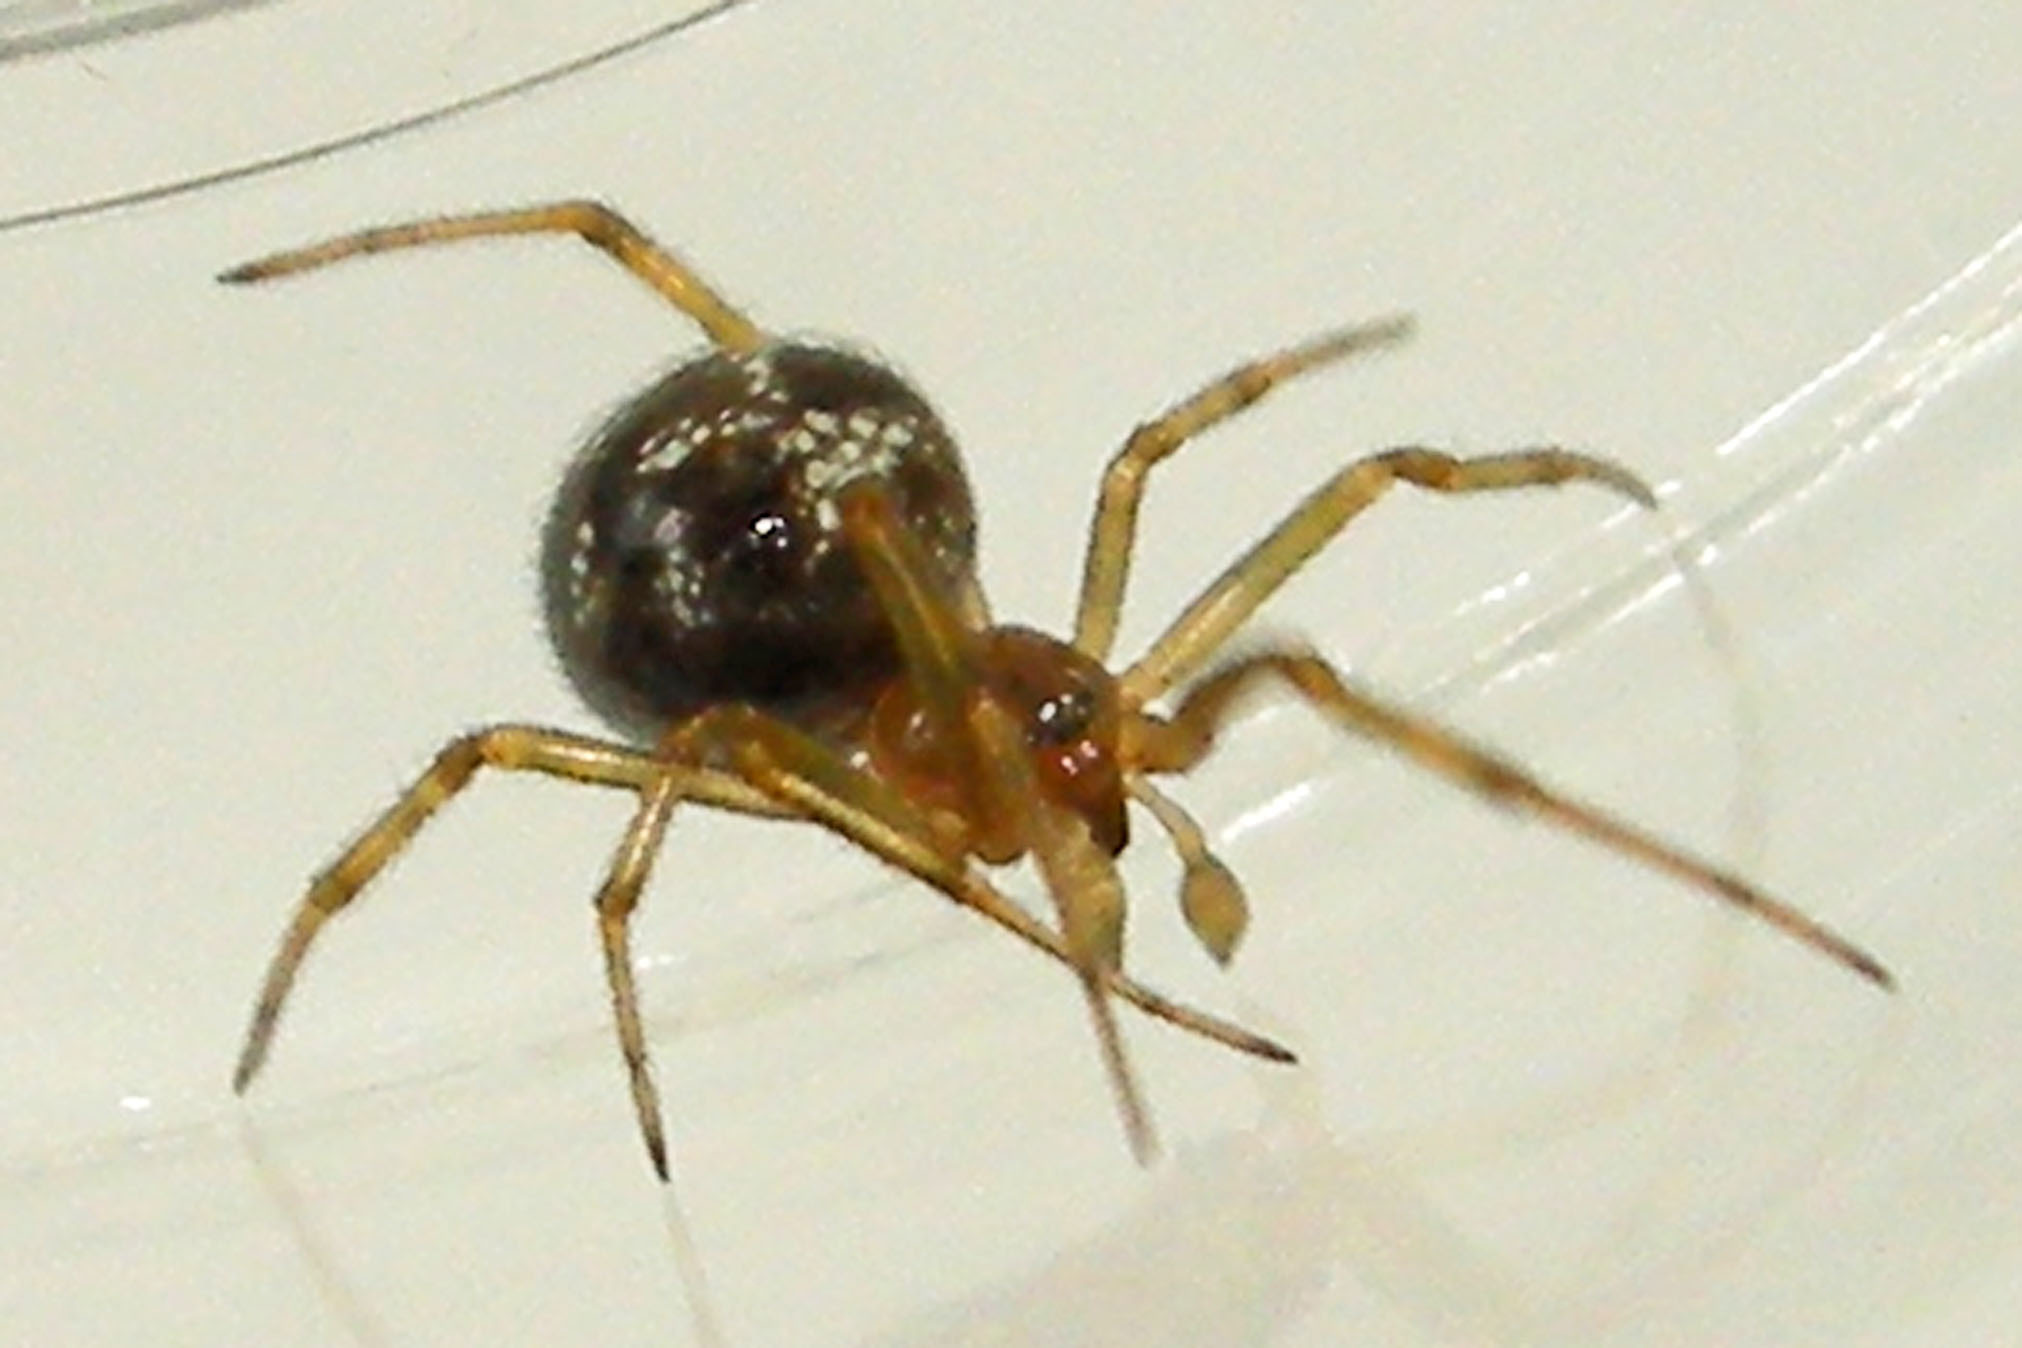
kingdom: Animalia
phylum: Arthropoda
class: Arachnida
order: Araneae
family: Theridiidae
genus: Steatoda
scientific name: Steatoda triangulosa
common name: Triangulate bud spider
